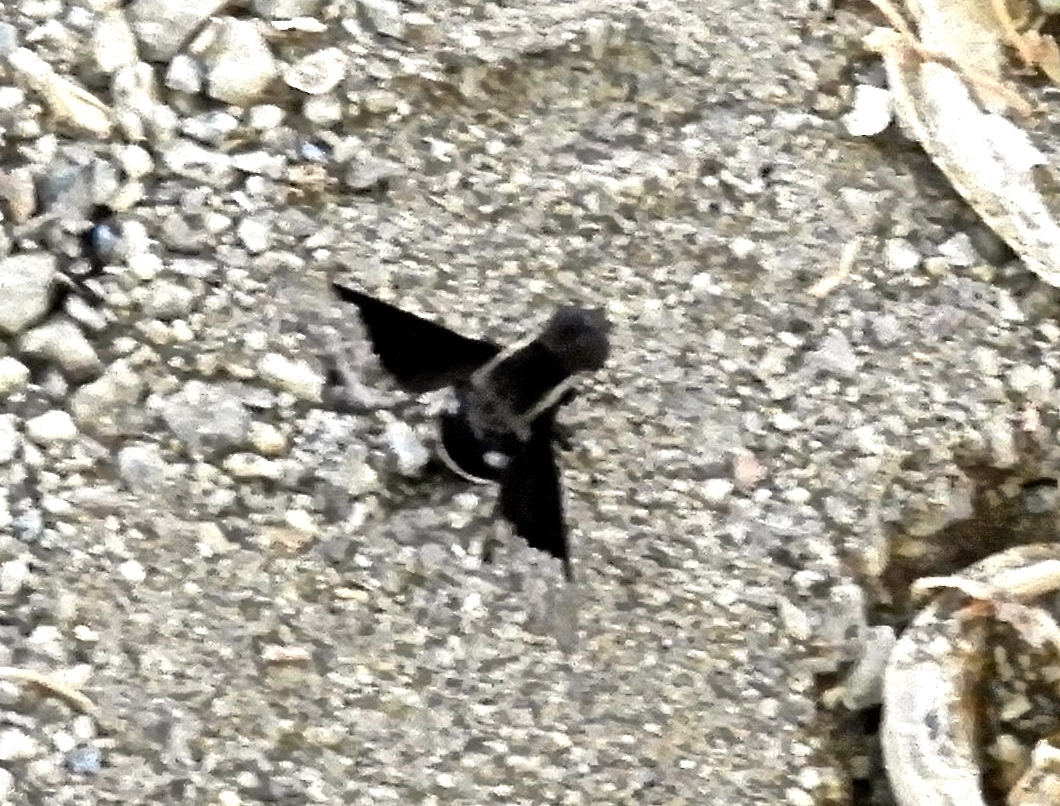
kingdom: Animalia
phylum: Arthropoda
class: Insecta
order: Diptera
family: Bombyliidae
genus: Hemipenthes
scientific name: Hemipenthes
